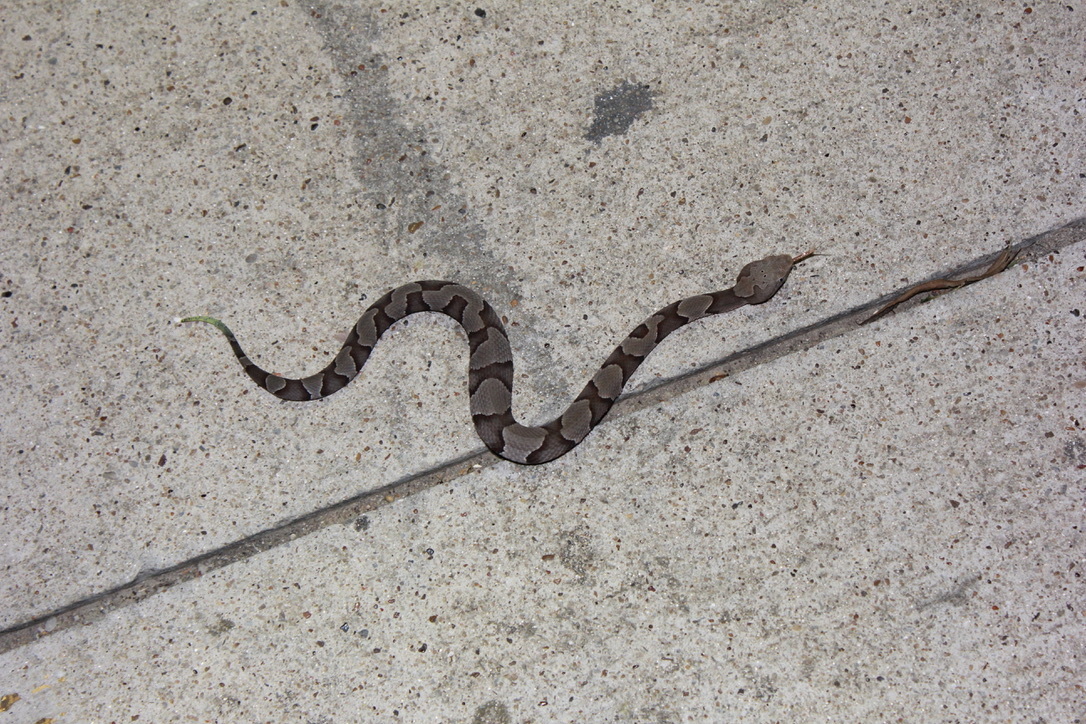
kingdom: Animalia
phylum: Chordata
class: Squamata
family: Viperidae
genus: Agkistrodon
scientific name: Agkistrodon laticinctus
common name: Broad-banded copperhead
